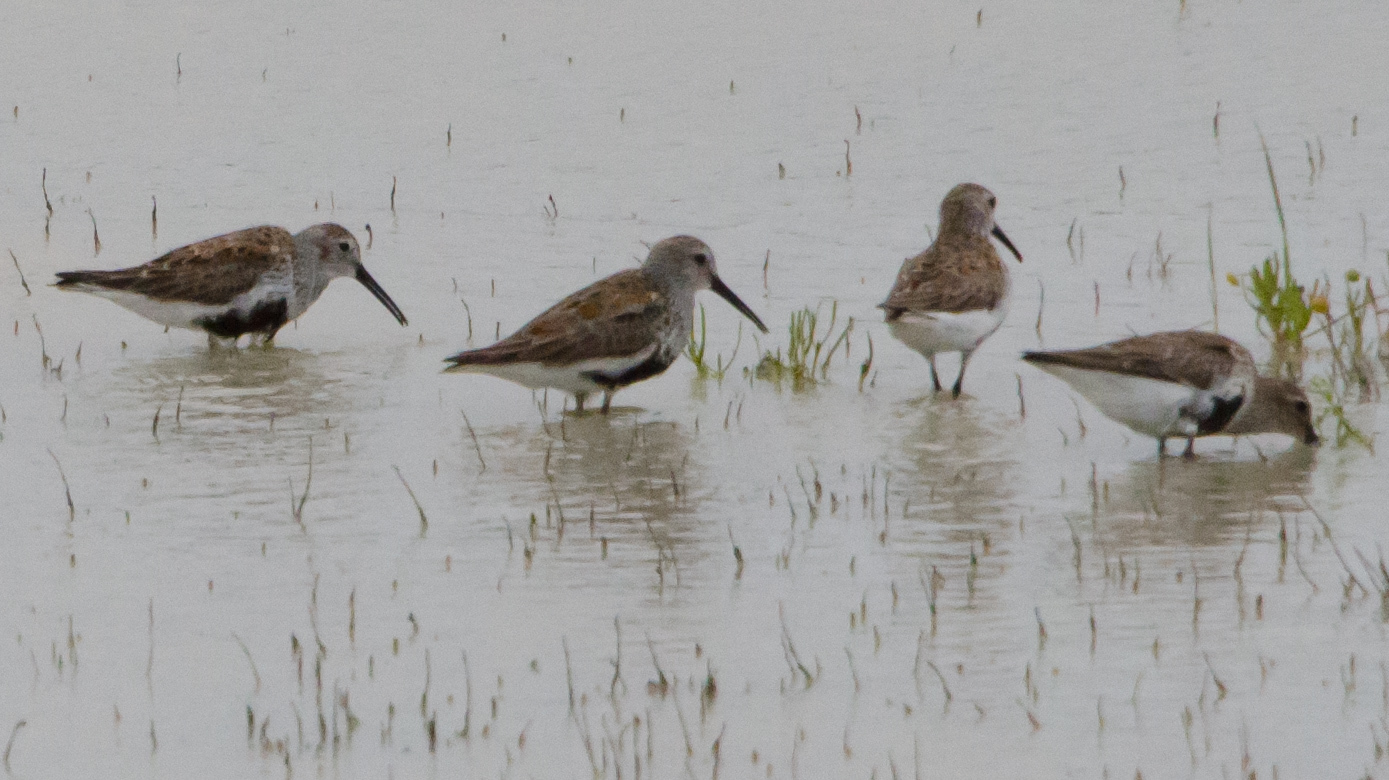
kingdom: Animalia
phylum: Chordata
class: Aves
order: Charadriiformes
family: Scolopacidae
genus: Calidris
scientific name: Calidris alpina
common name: Dunlin
